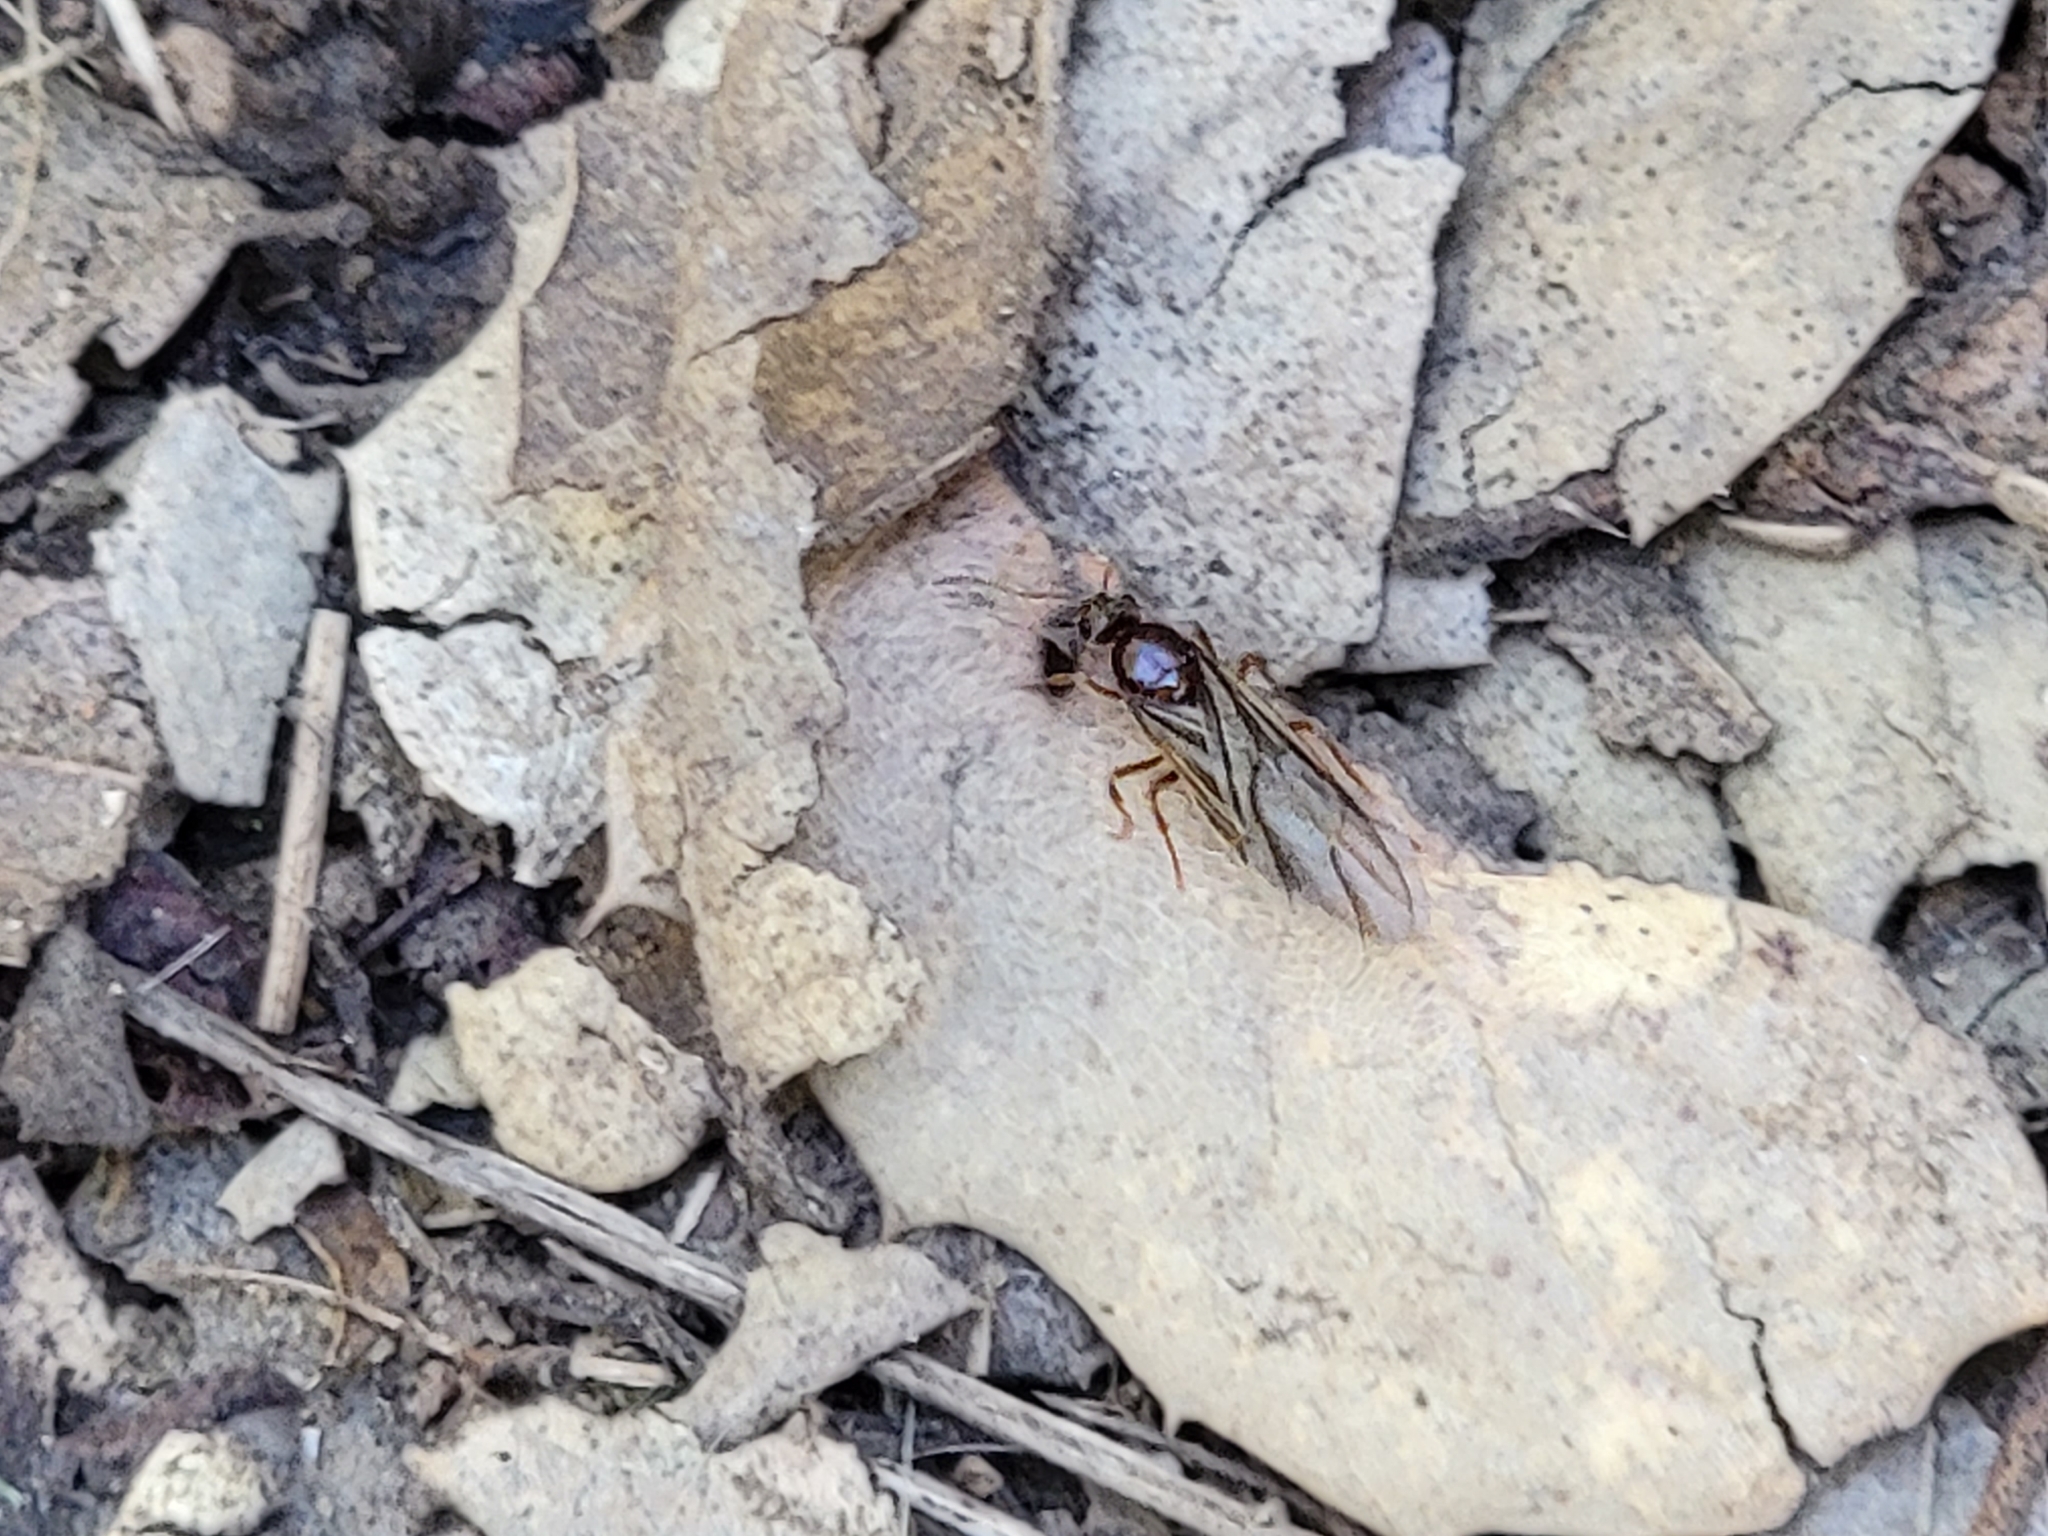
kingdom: Animalia
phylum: Arthropoda
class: Insecta
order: Hymenoptera
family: Formicidae
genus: Prenolepis
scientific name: Prenolepis imparis
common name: Small honey ant
